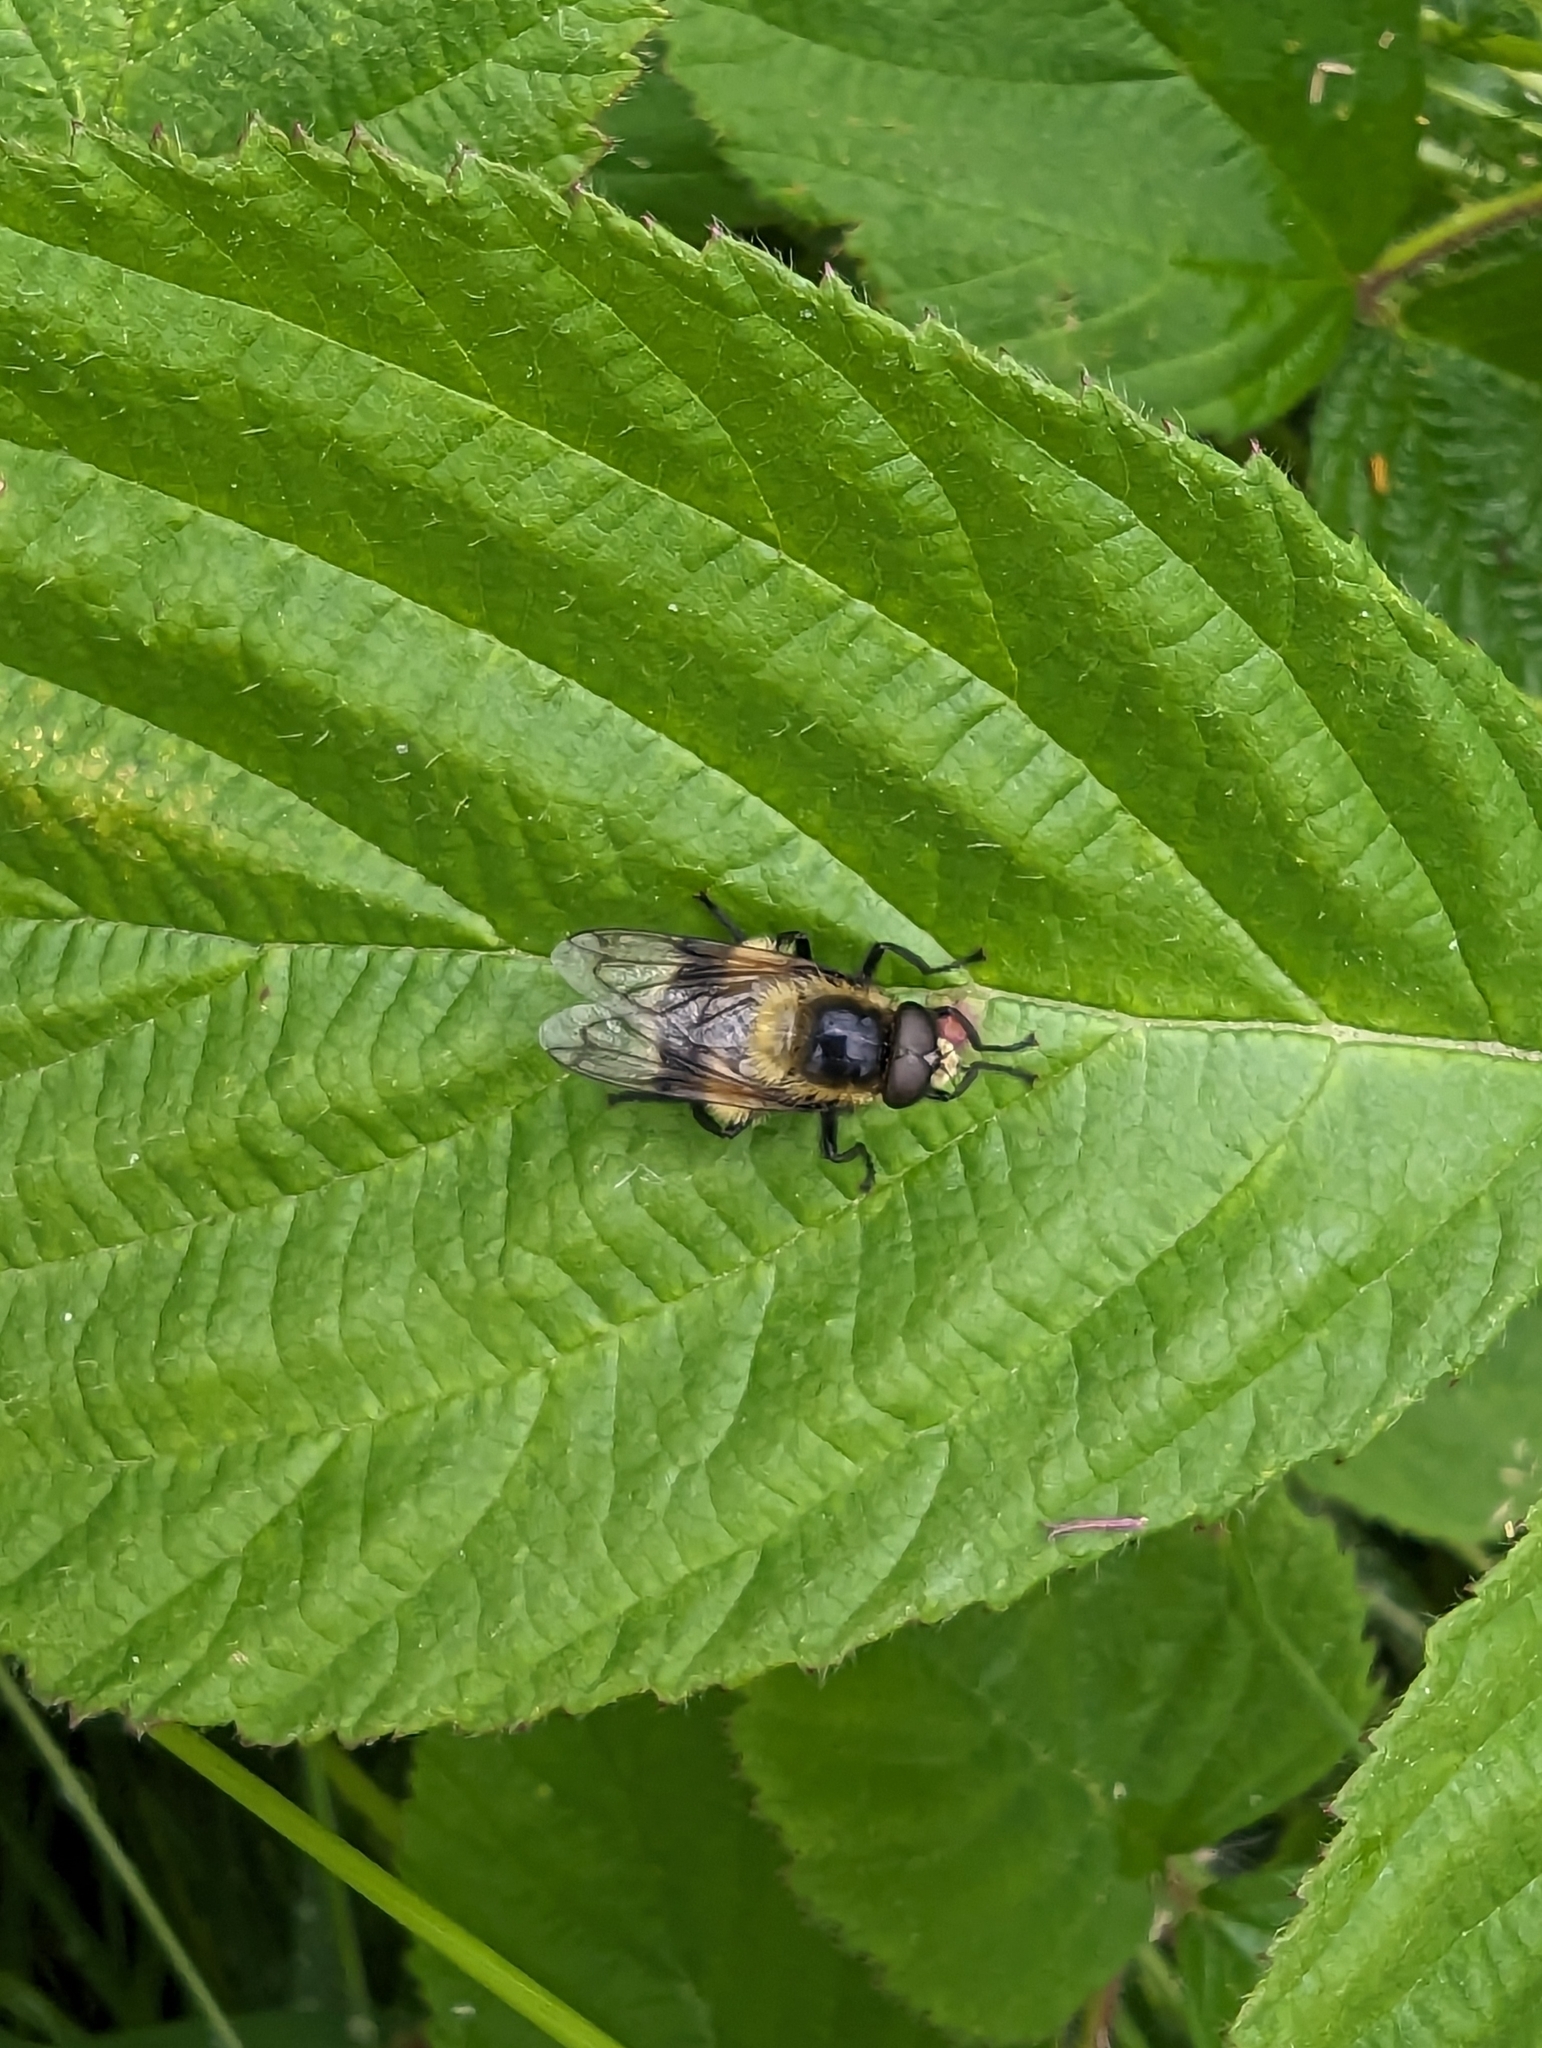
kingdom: Animalia
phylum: Arthropoda
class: Insecta
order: Diptera
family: Syrphidae
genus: Volucella
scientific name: Volucella bombylans
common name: Bumble bee hover fly
